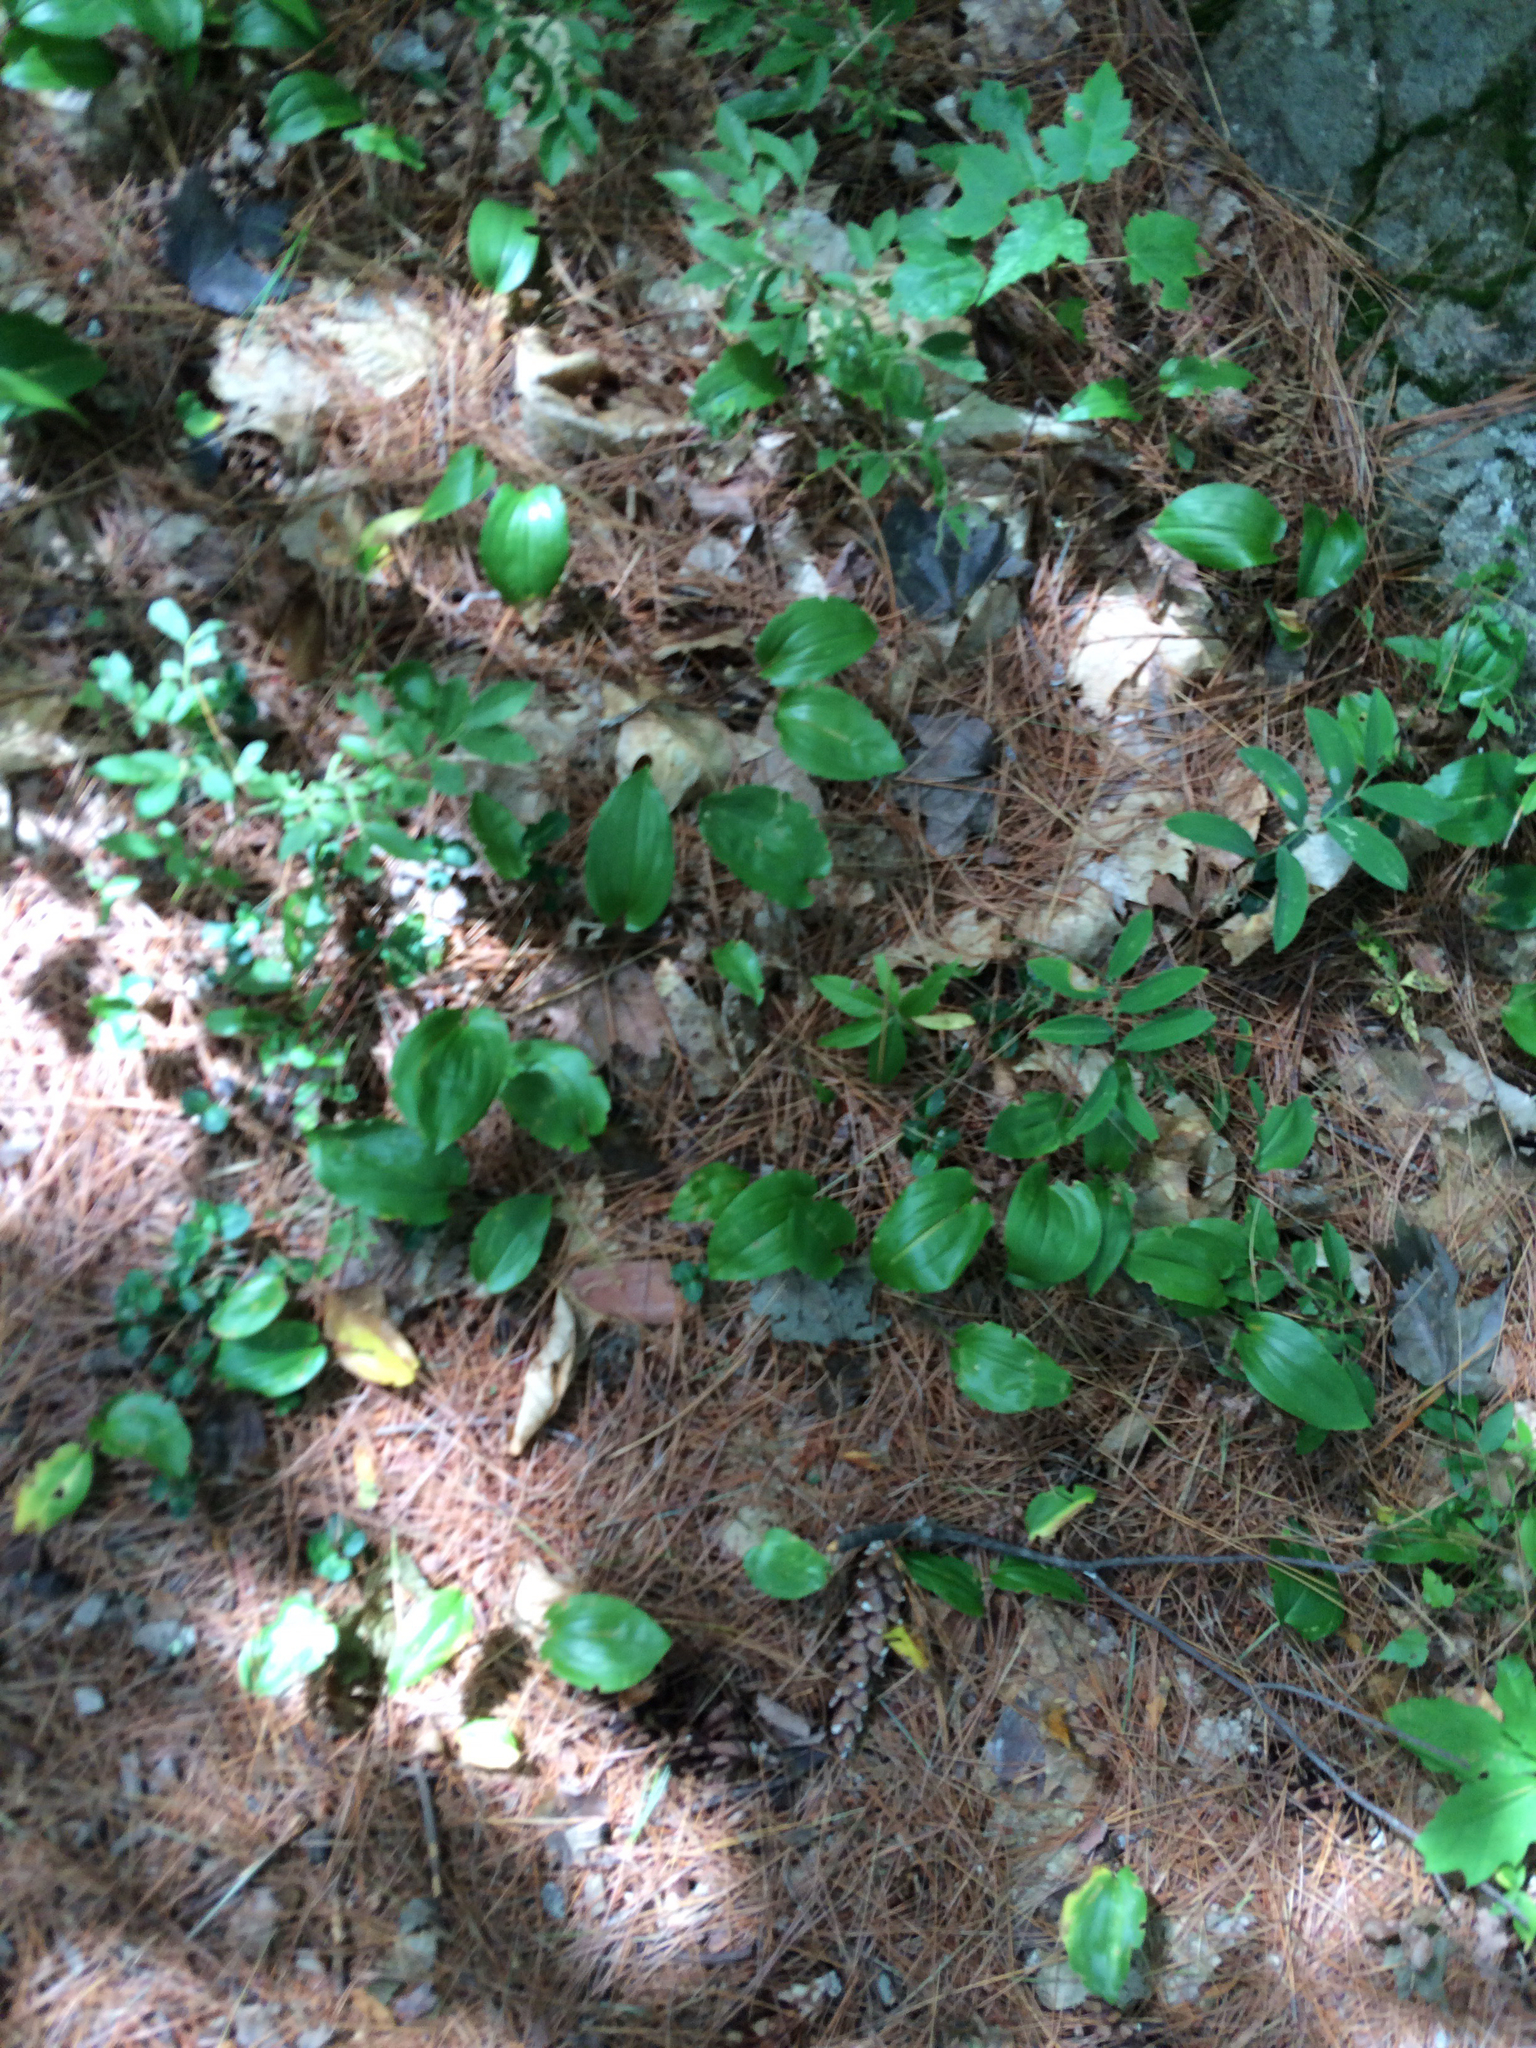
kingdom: Plantae
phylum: Tracheophyta
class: Liliopsida
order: Asparagales
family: Asparagaceae
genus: Maianthemum
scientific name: Maianthemum canadense
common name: False lily-of-the-valley
